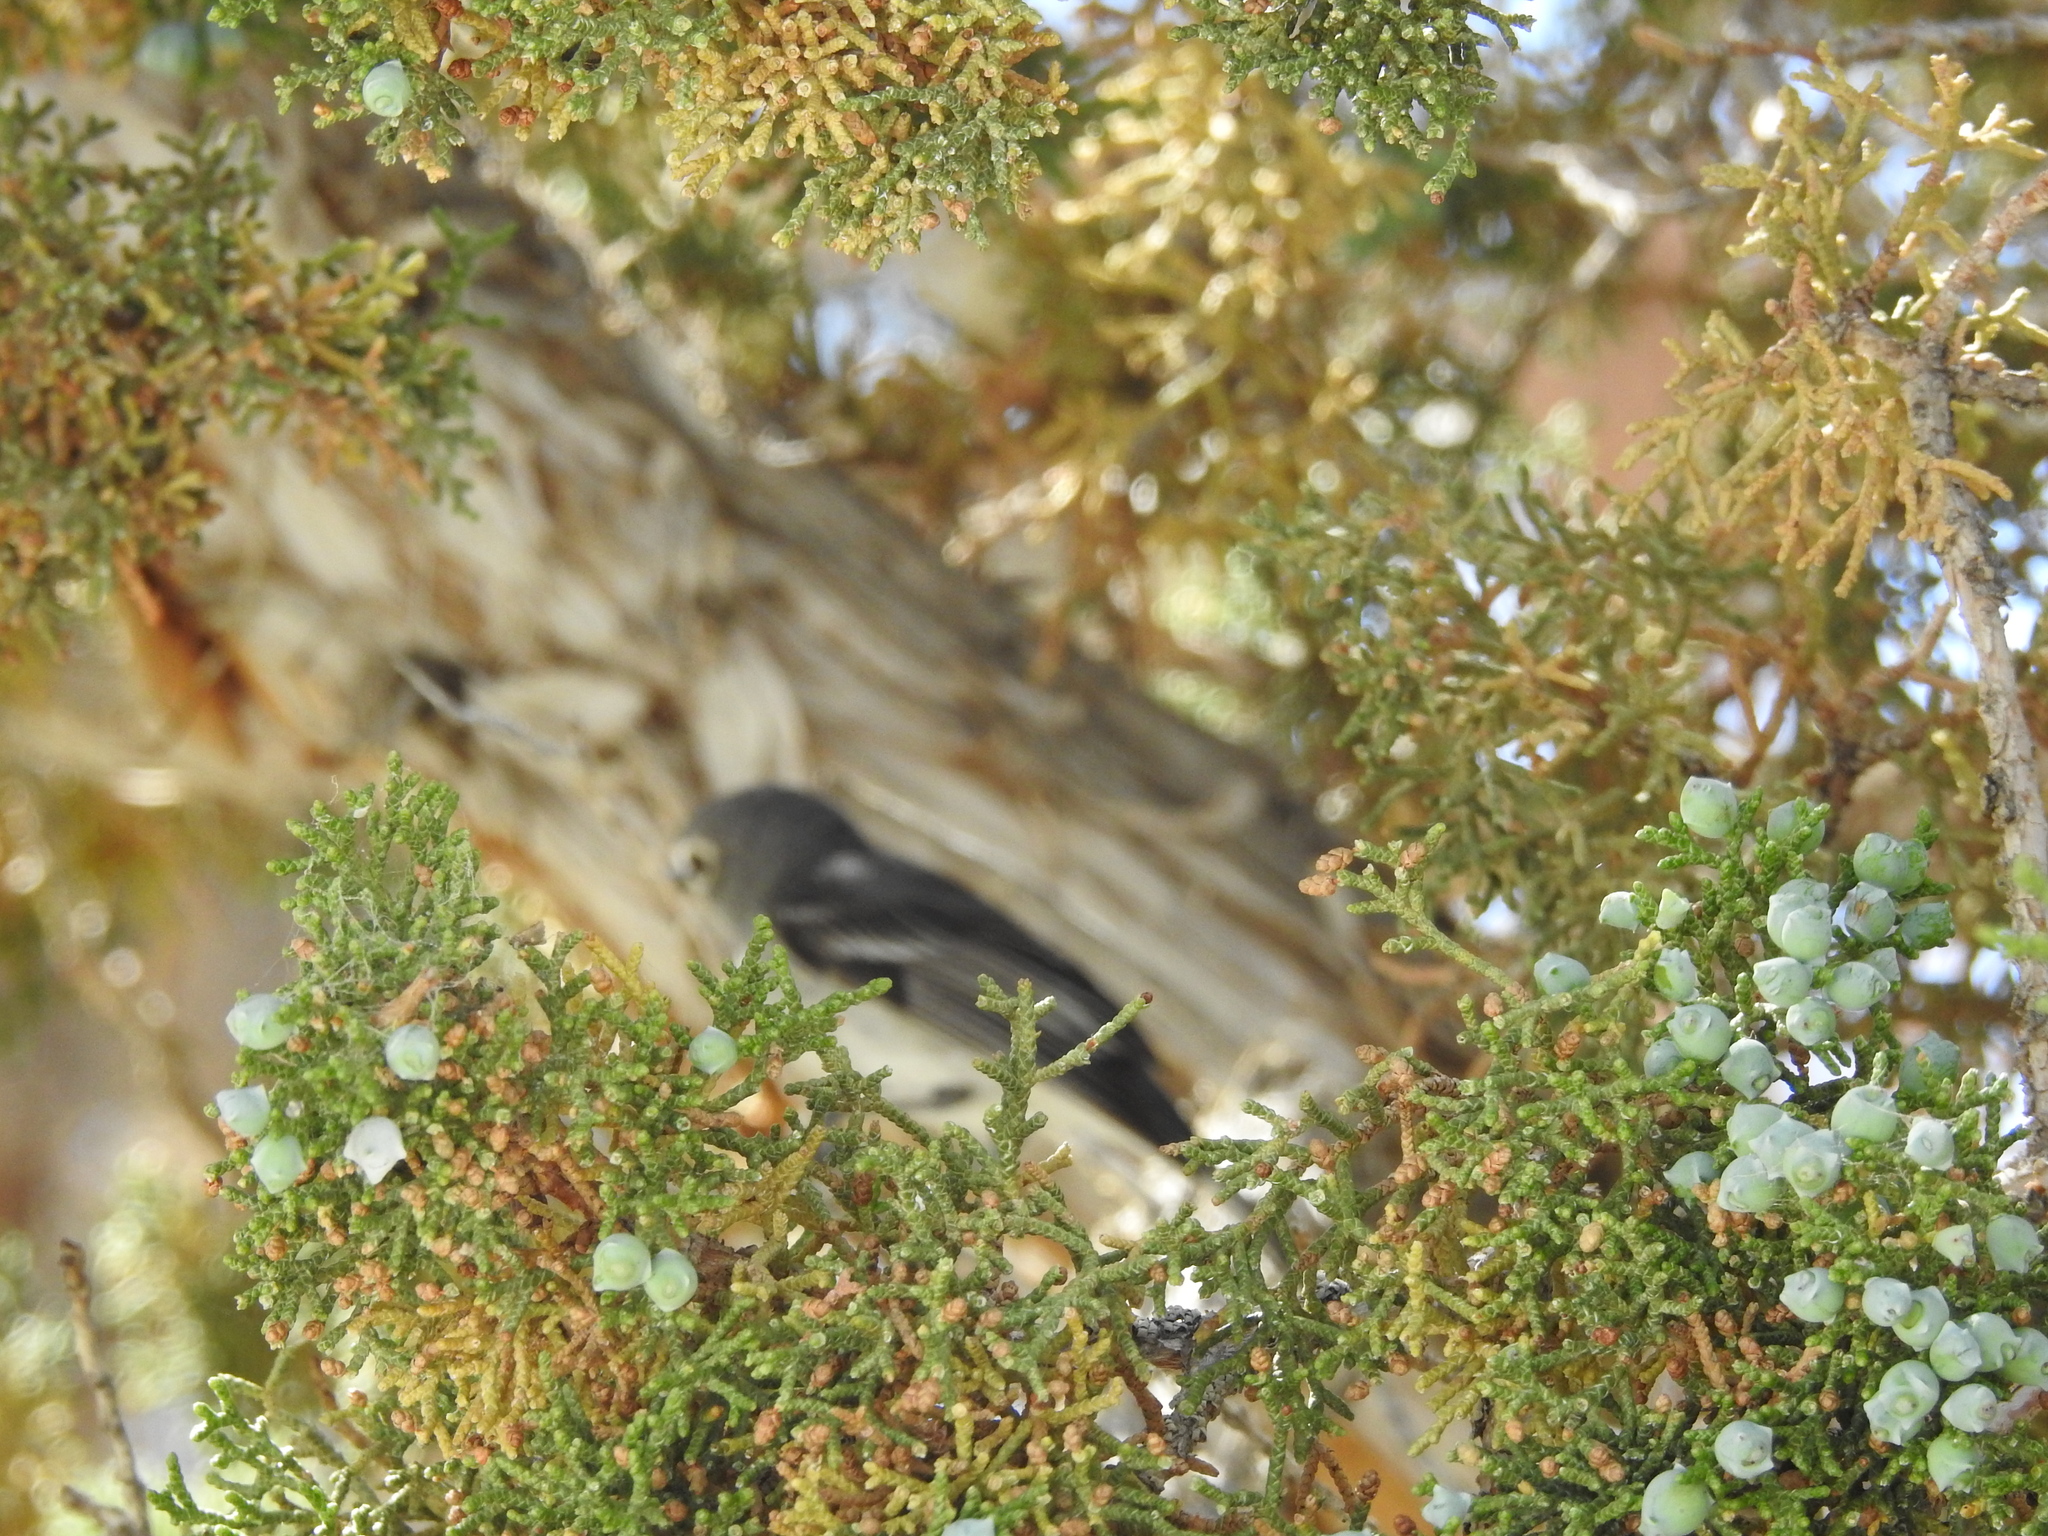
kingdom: Animalia
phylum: Chordata
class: Aves
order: Passeriformes
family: Vireonidae
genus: Vireo
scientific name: Vireo plumbeus
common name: Plumbeous vireo
